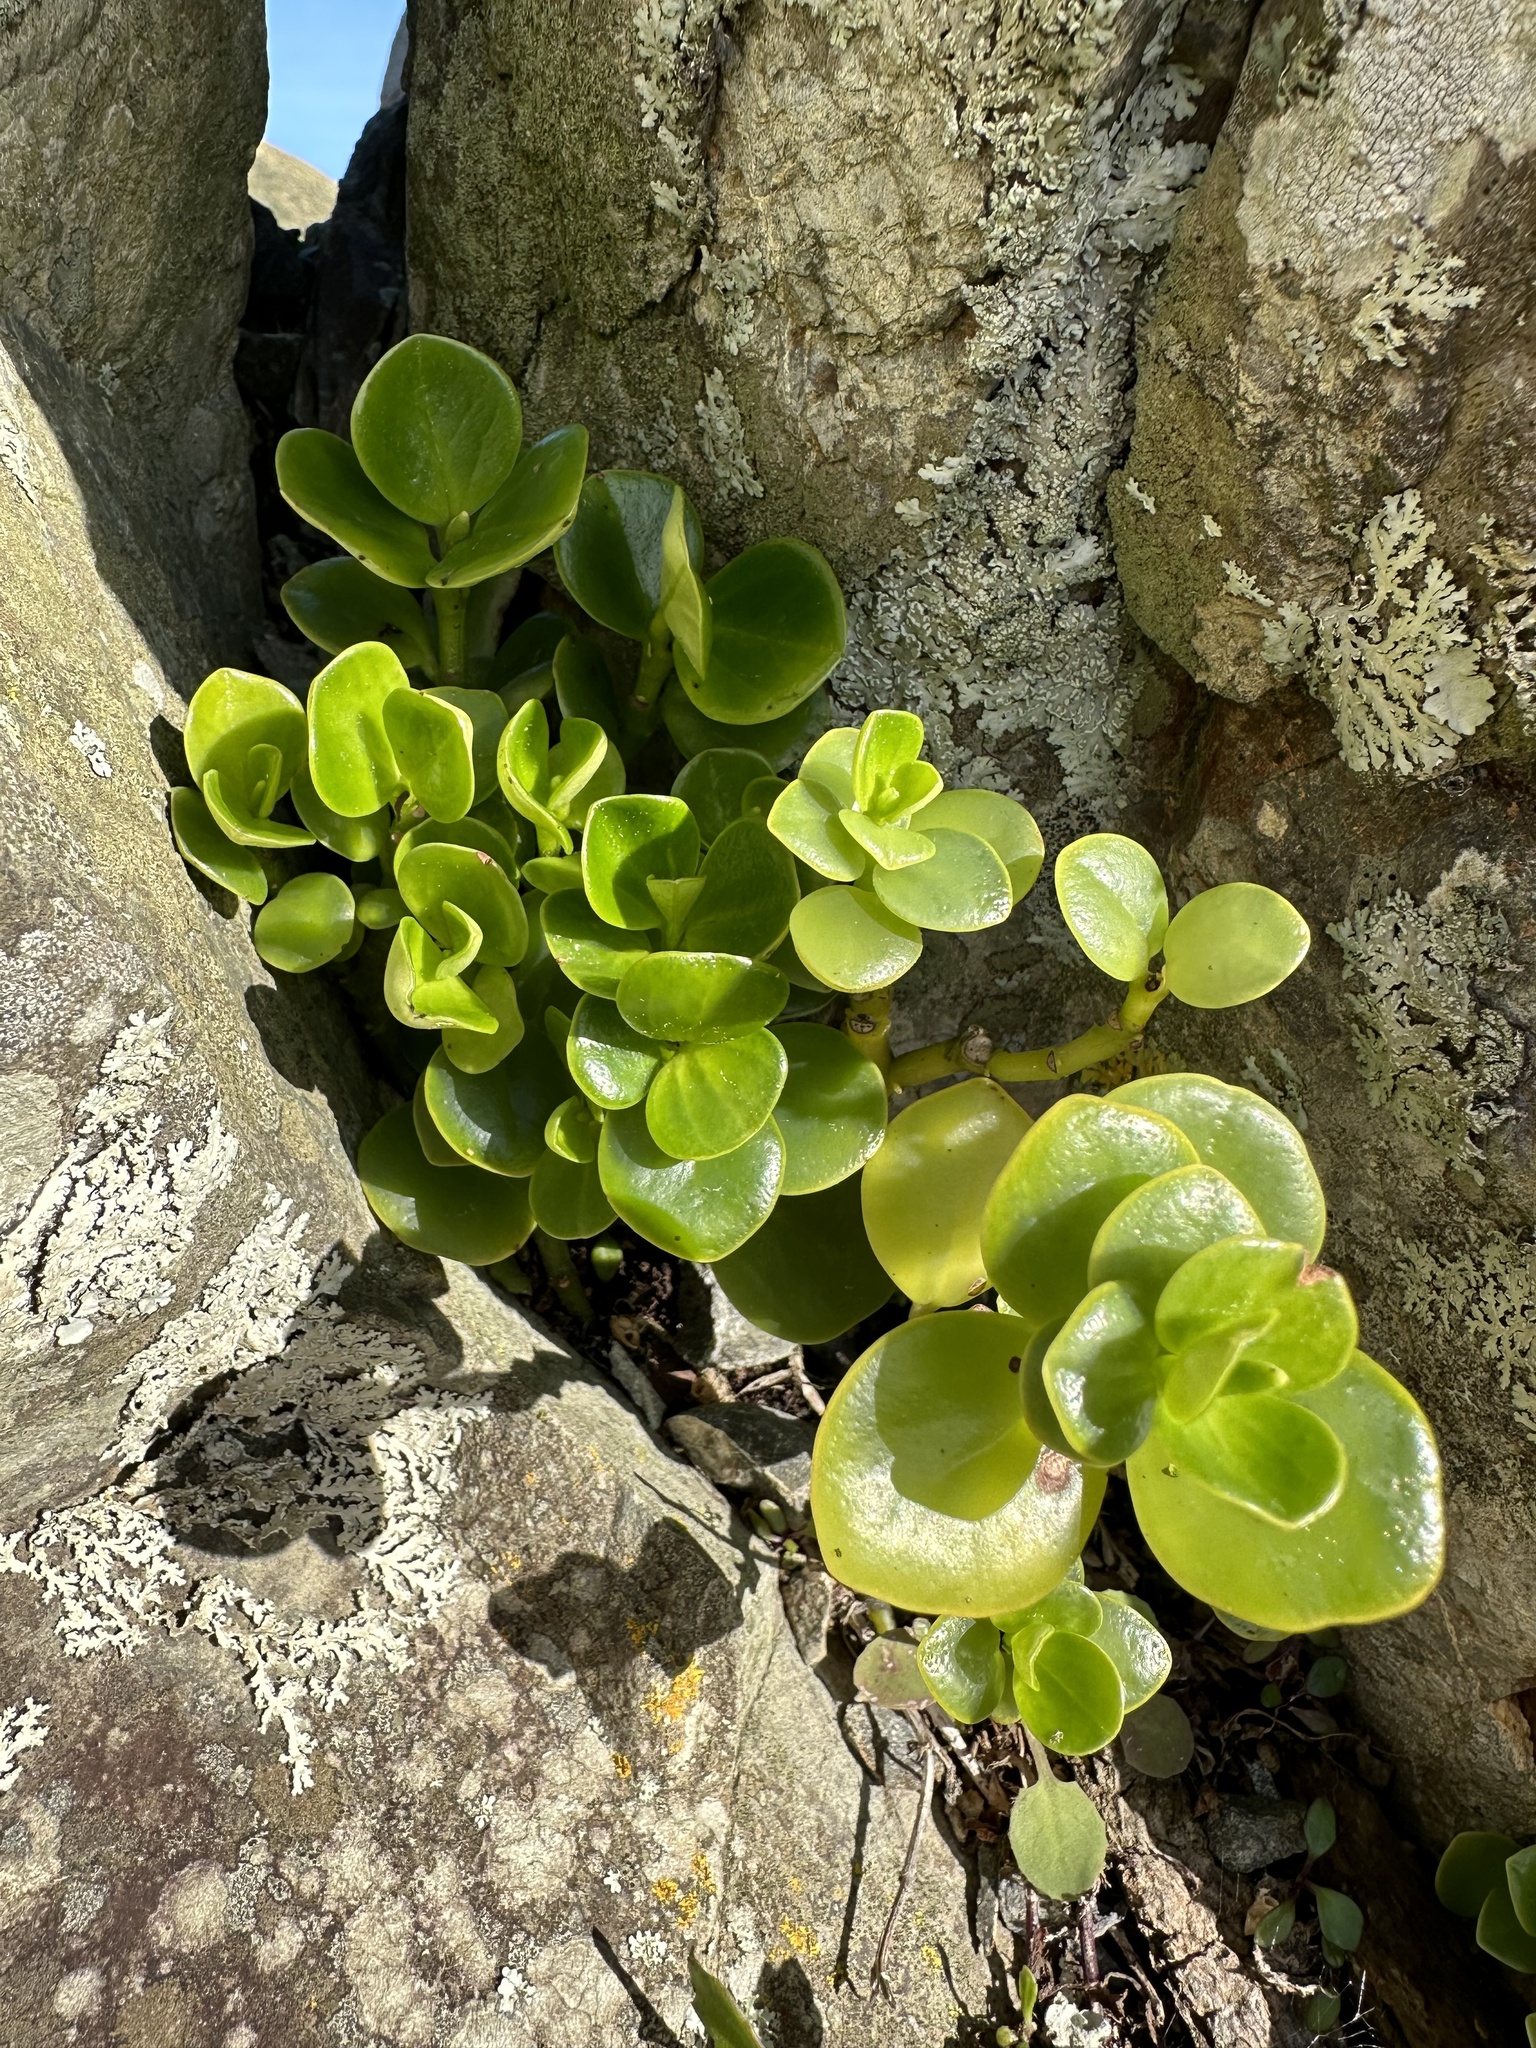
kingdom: Plantae
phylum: Tracheophyta
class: Magnoliopsida
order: Piperales
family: Piperaceae
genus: Peperomia
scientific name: Peperomia urvilleana
